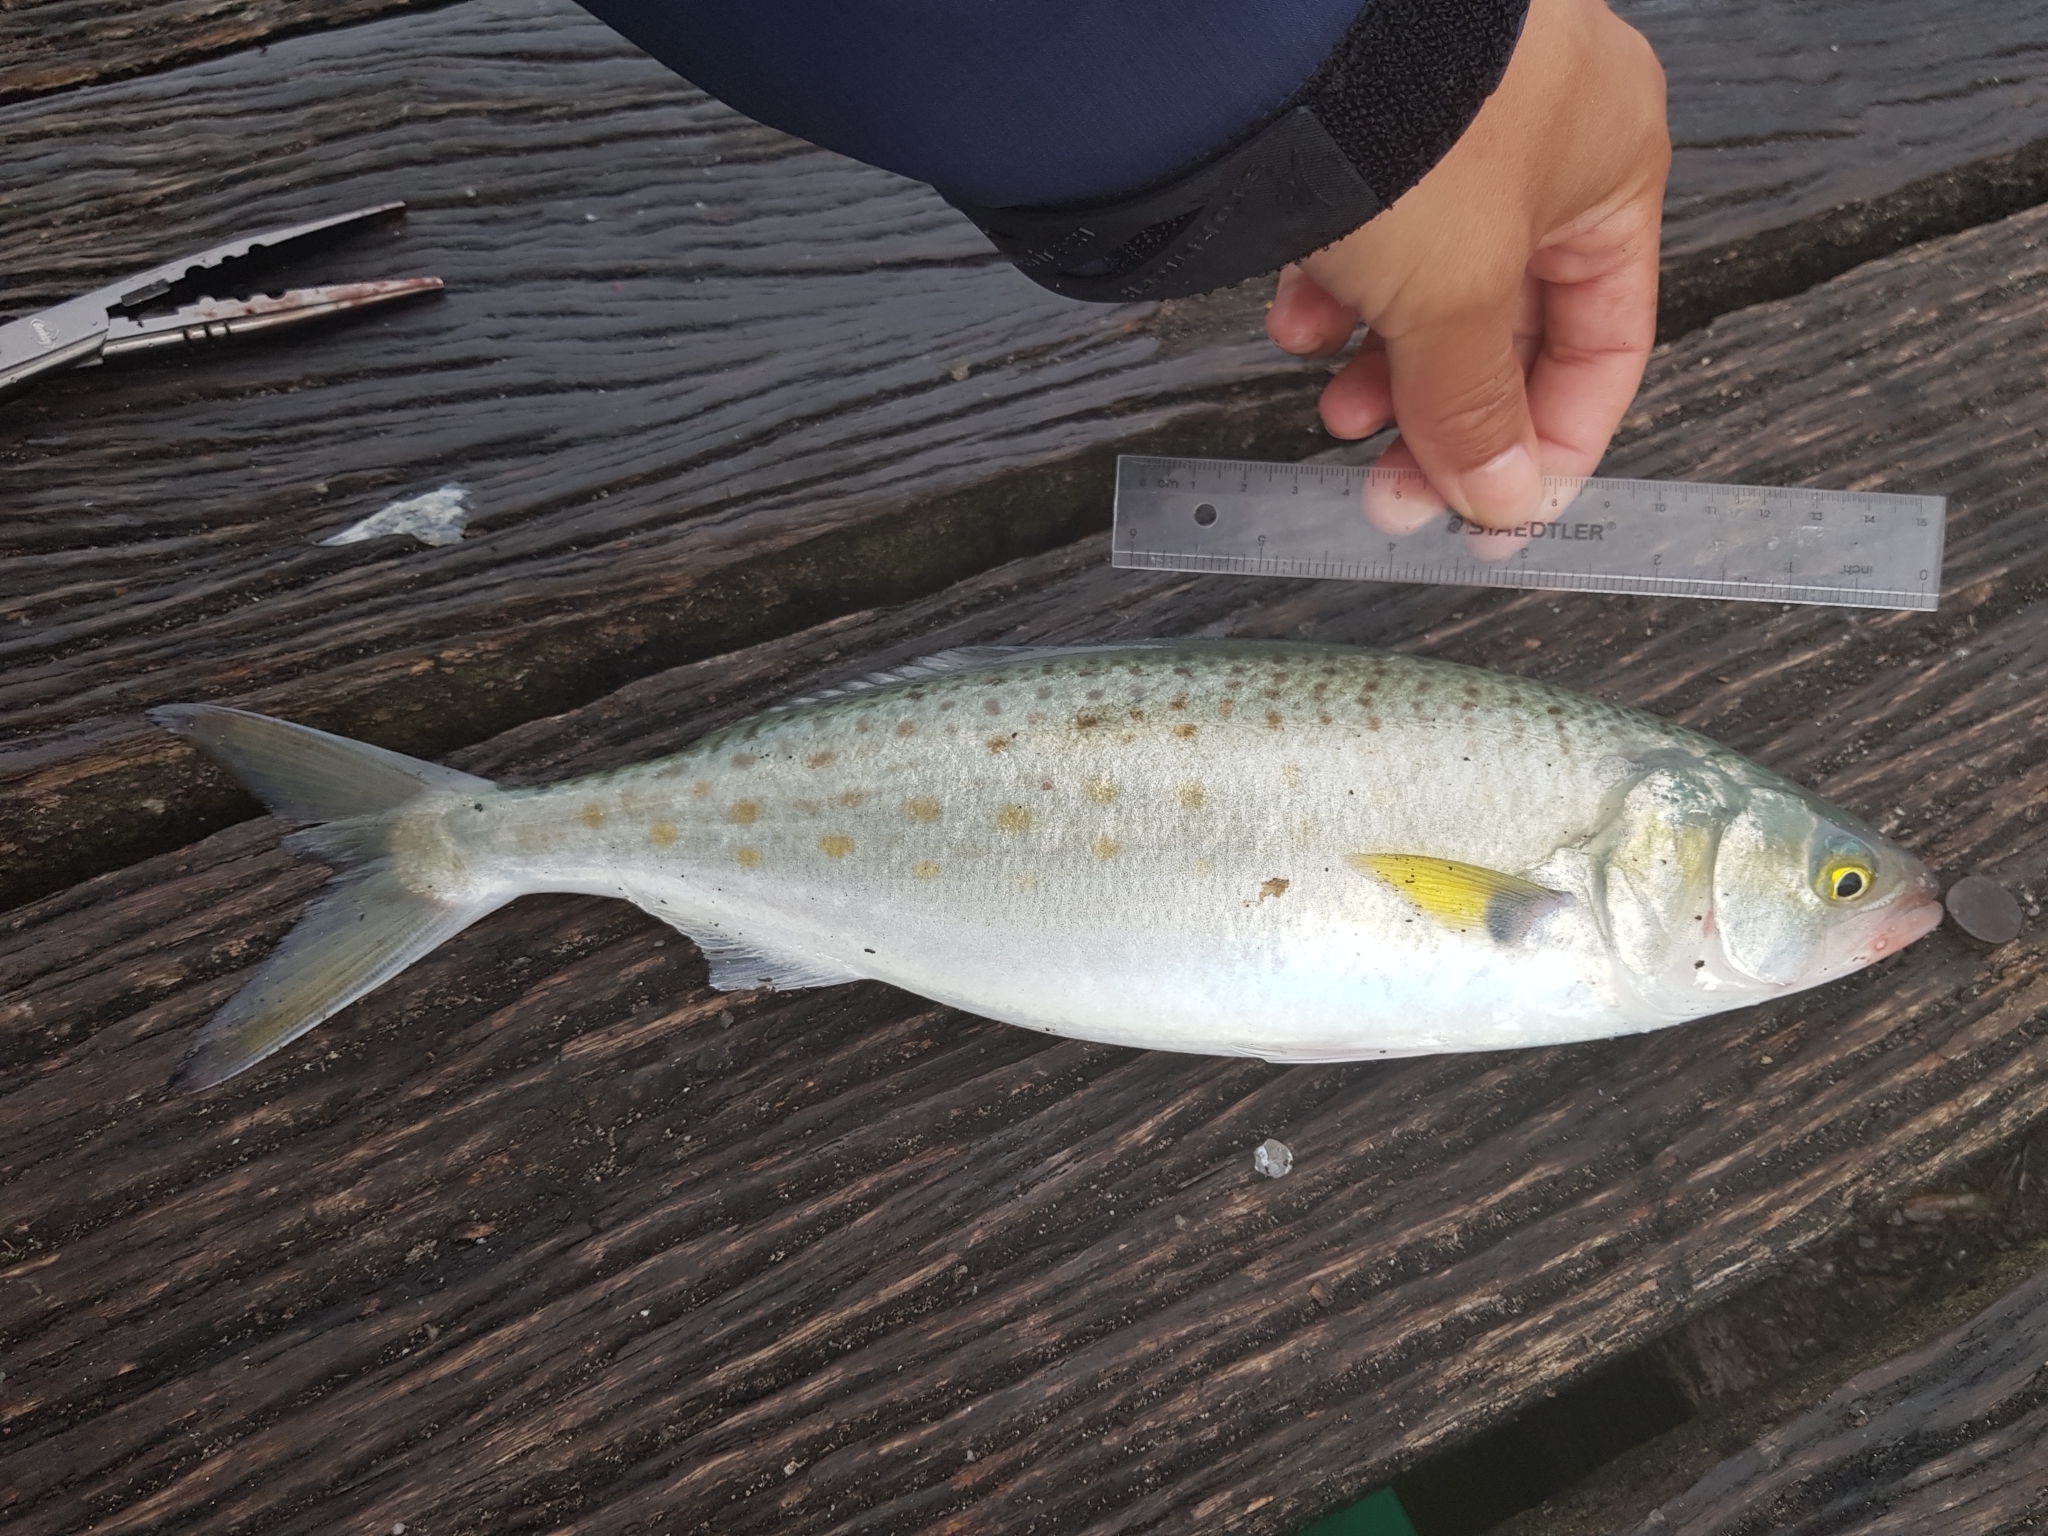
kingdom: Animalia
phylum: Chordata
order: Perciformes
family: Arripidae
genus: Arripis
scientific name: Arripis trutta
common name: Kahawai
